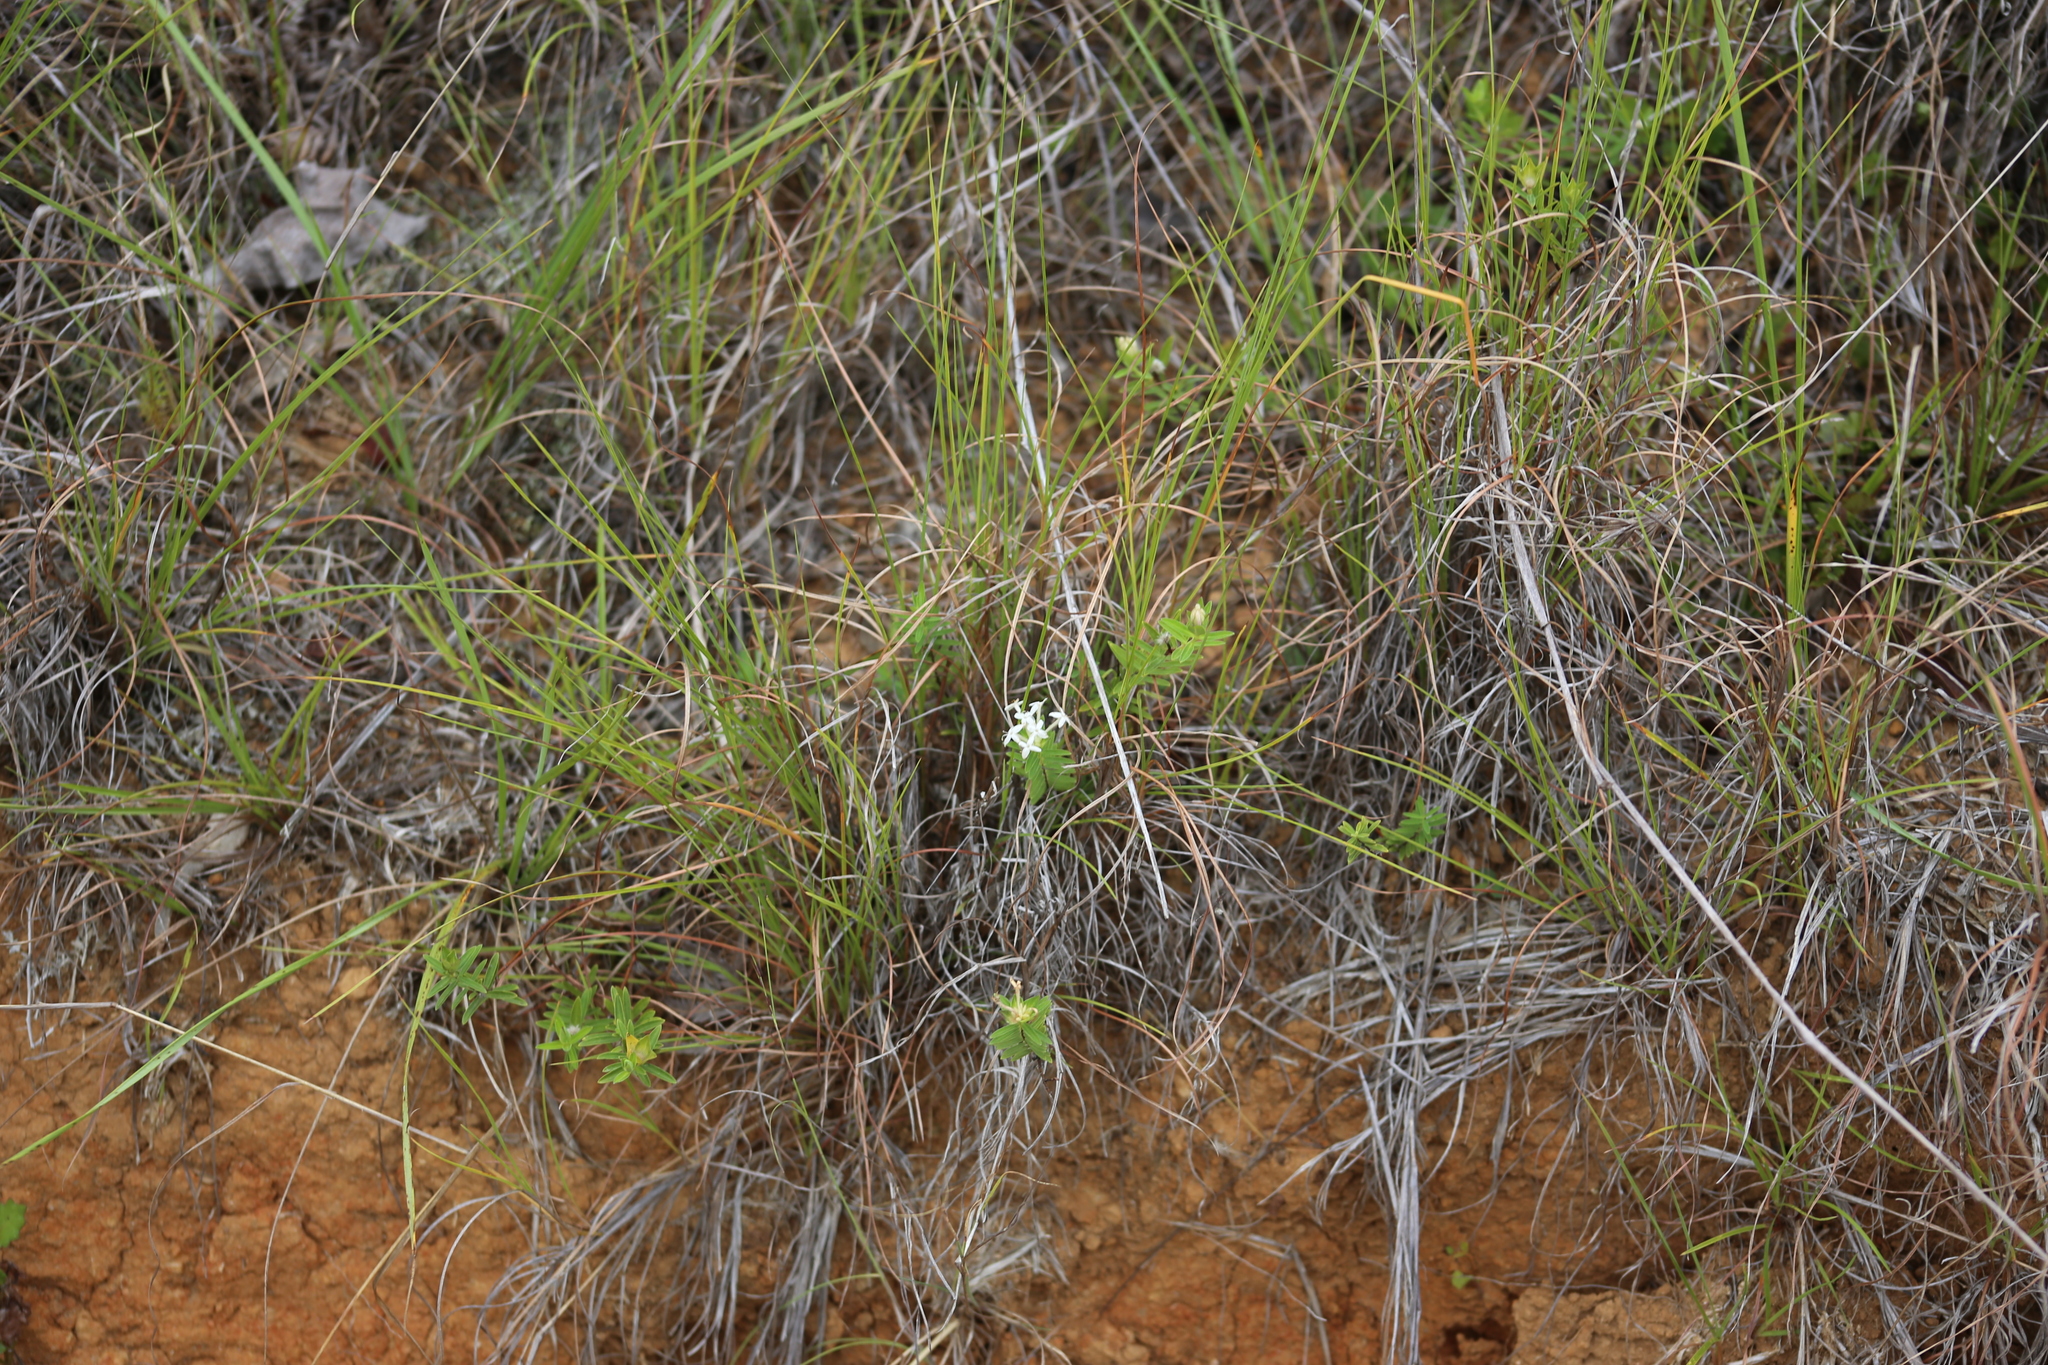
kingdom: Plantae
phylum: Tracheophyta
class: Magnoliopsida
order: Malvales
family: Thymelaeaceae
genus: Pimelea
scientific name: Pimelea linifolia
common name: Queen-of-the-bush
